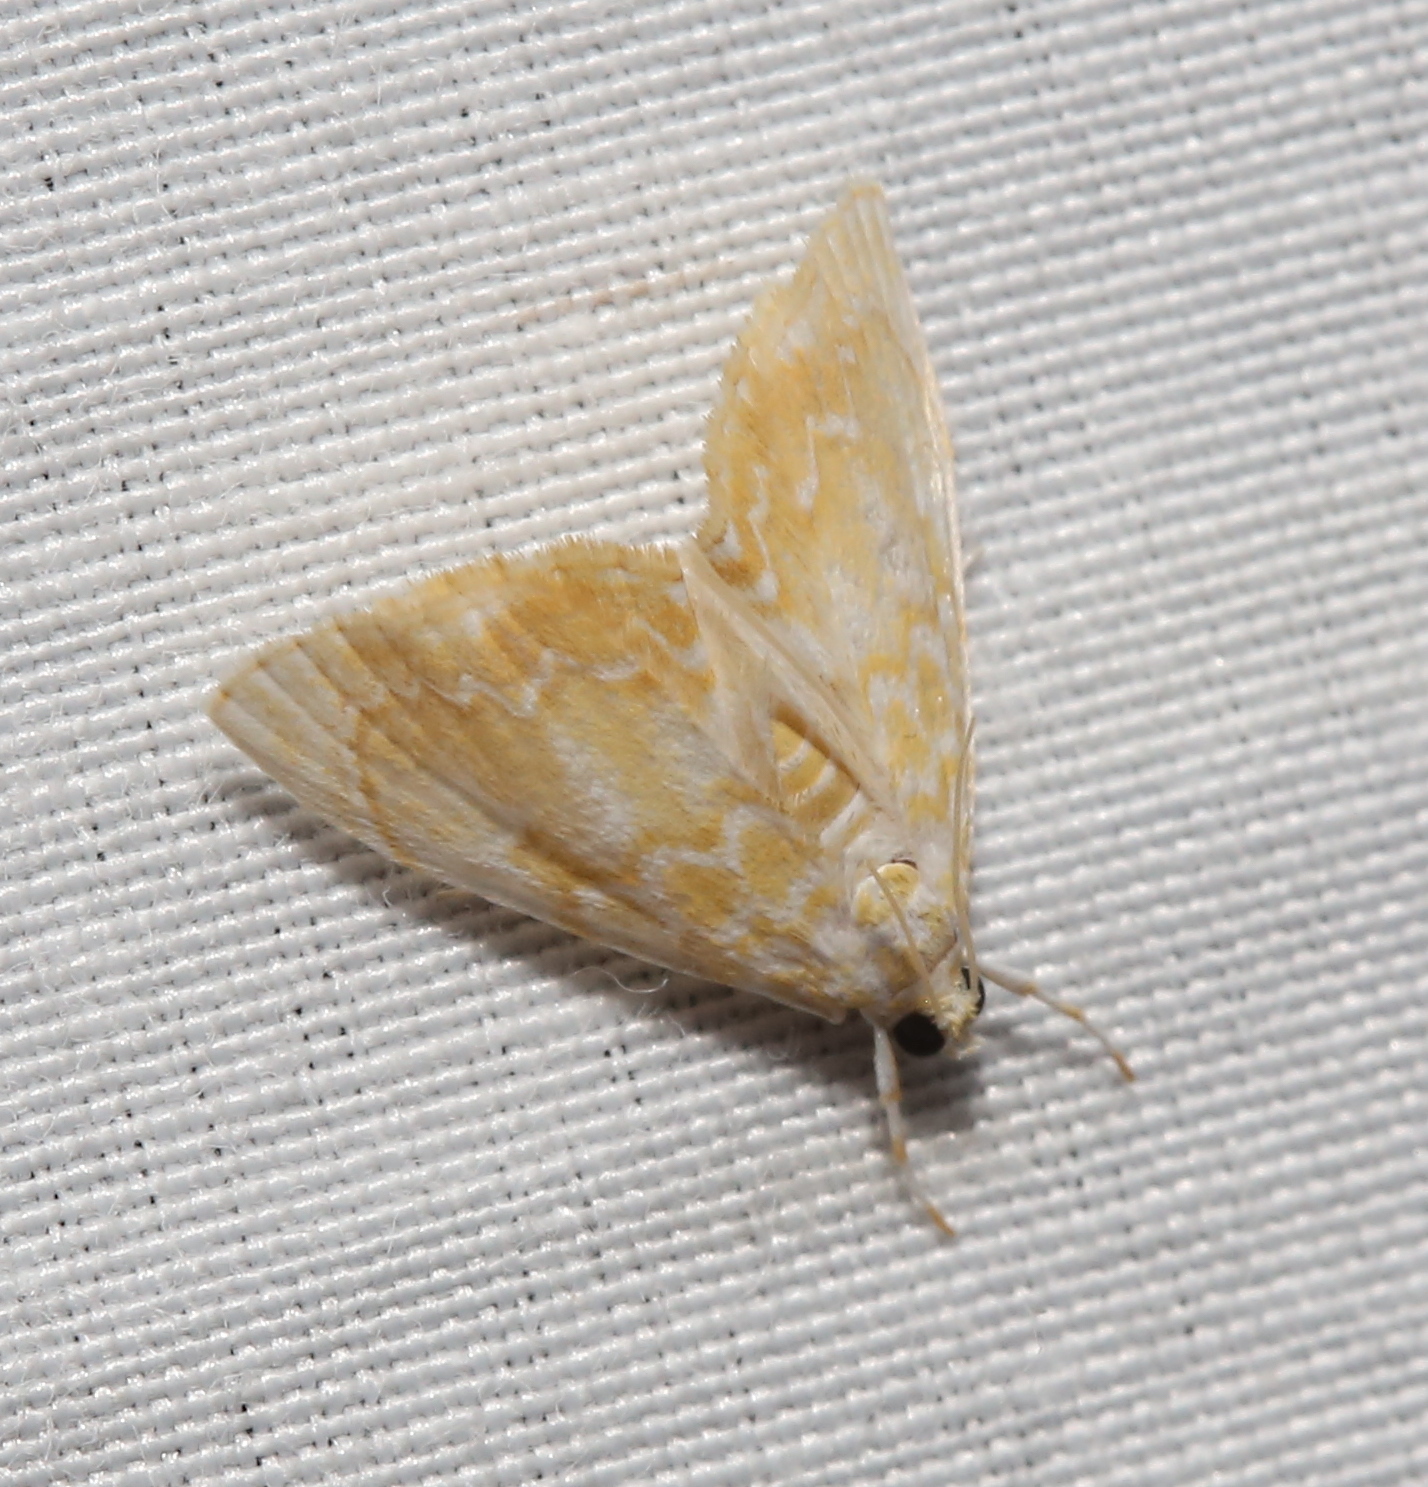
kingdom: Animalia
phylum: Arthropoda
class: Insecta
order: Lepidoptera
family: Crambidae
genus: Glaphyria
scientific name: Glaphyria glaphyralis
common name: Common glaphyria moth
